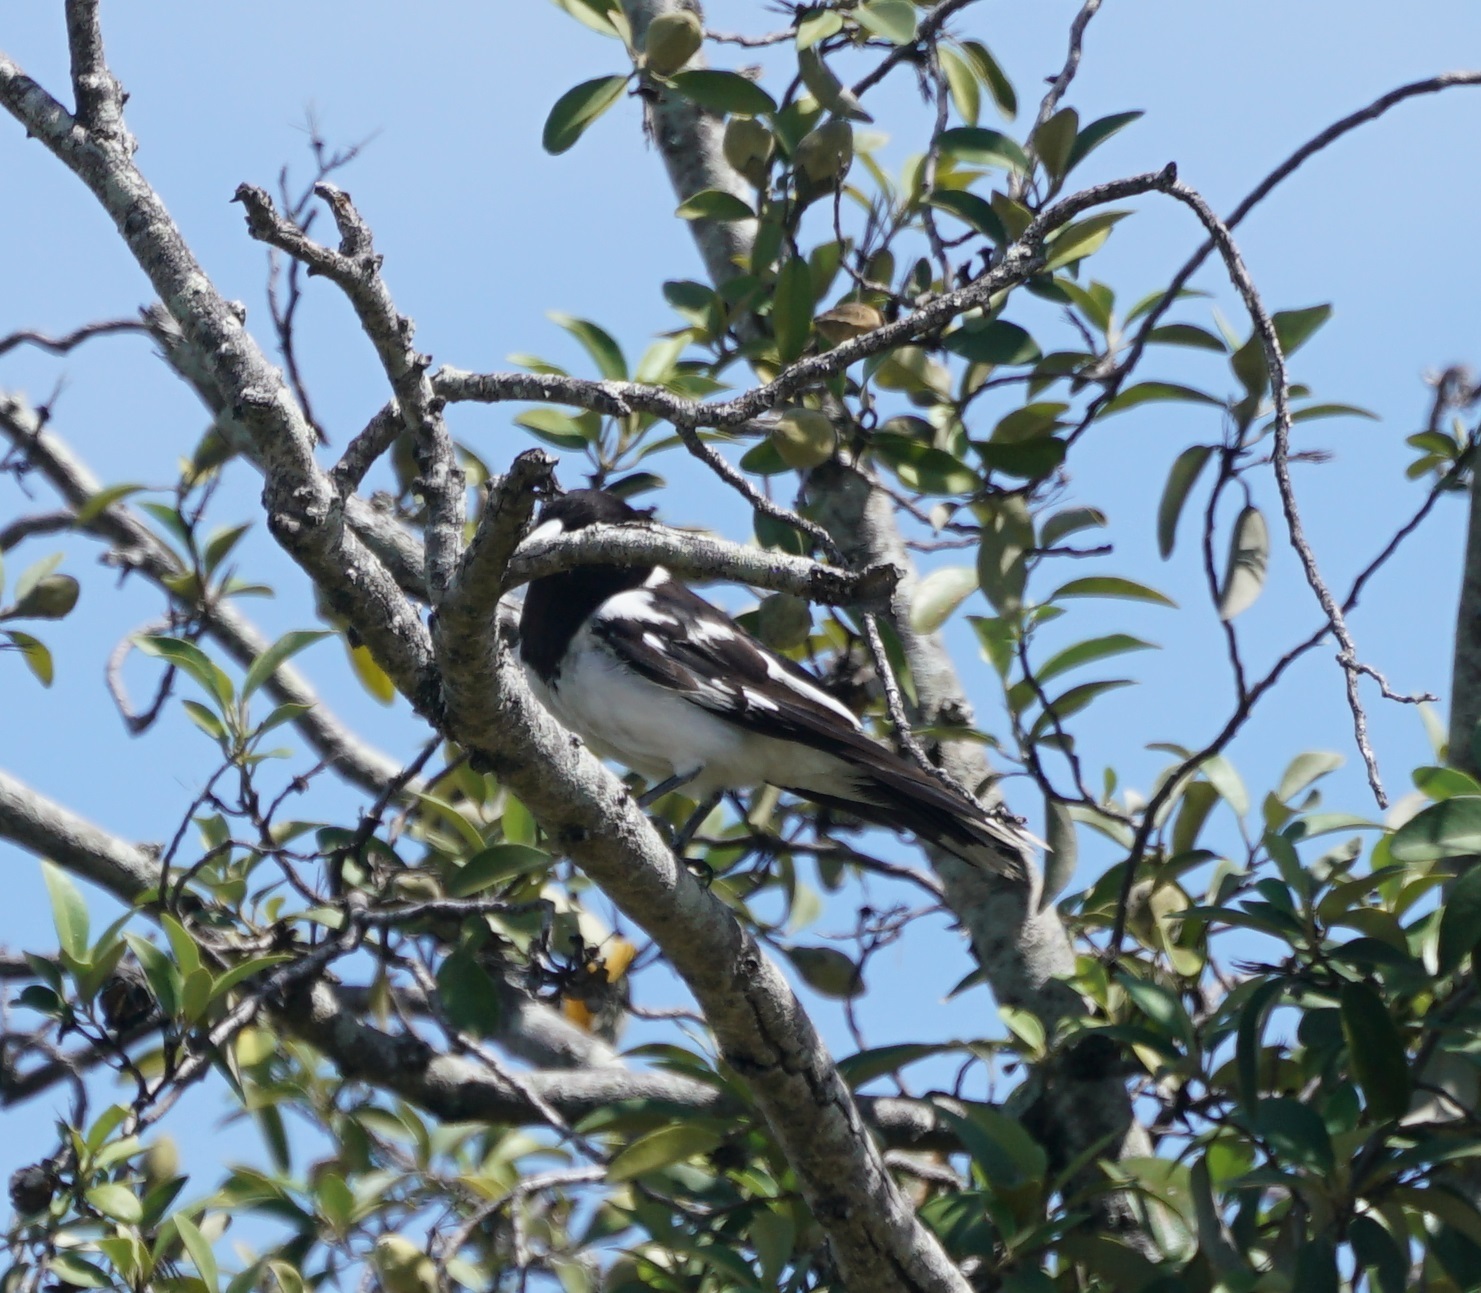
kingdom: Animalia
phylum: Chordata
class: Aves
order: Passeriformes
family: Cracticidae
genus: Cracticus
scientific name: Cracticus nigrogularis
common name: Pied butcherbird
